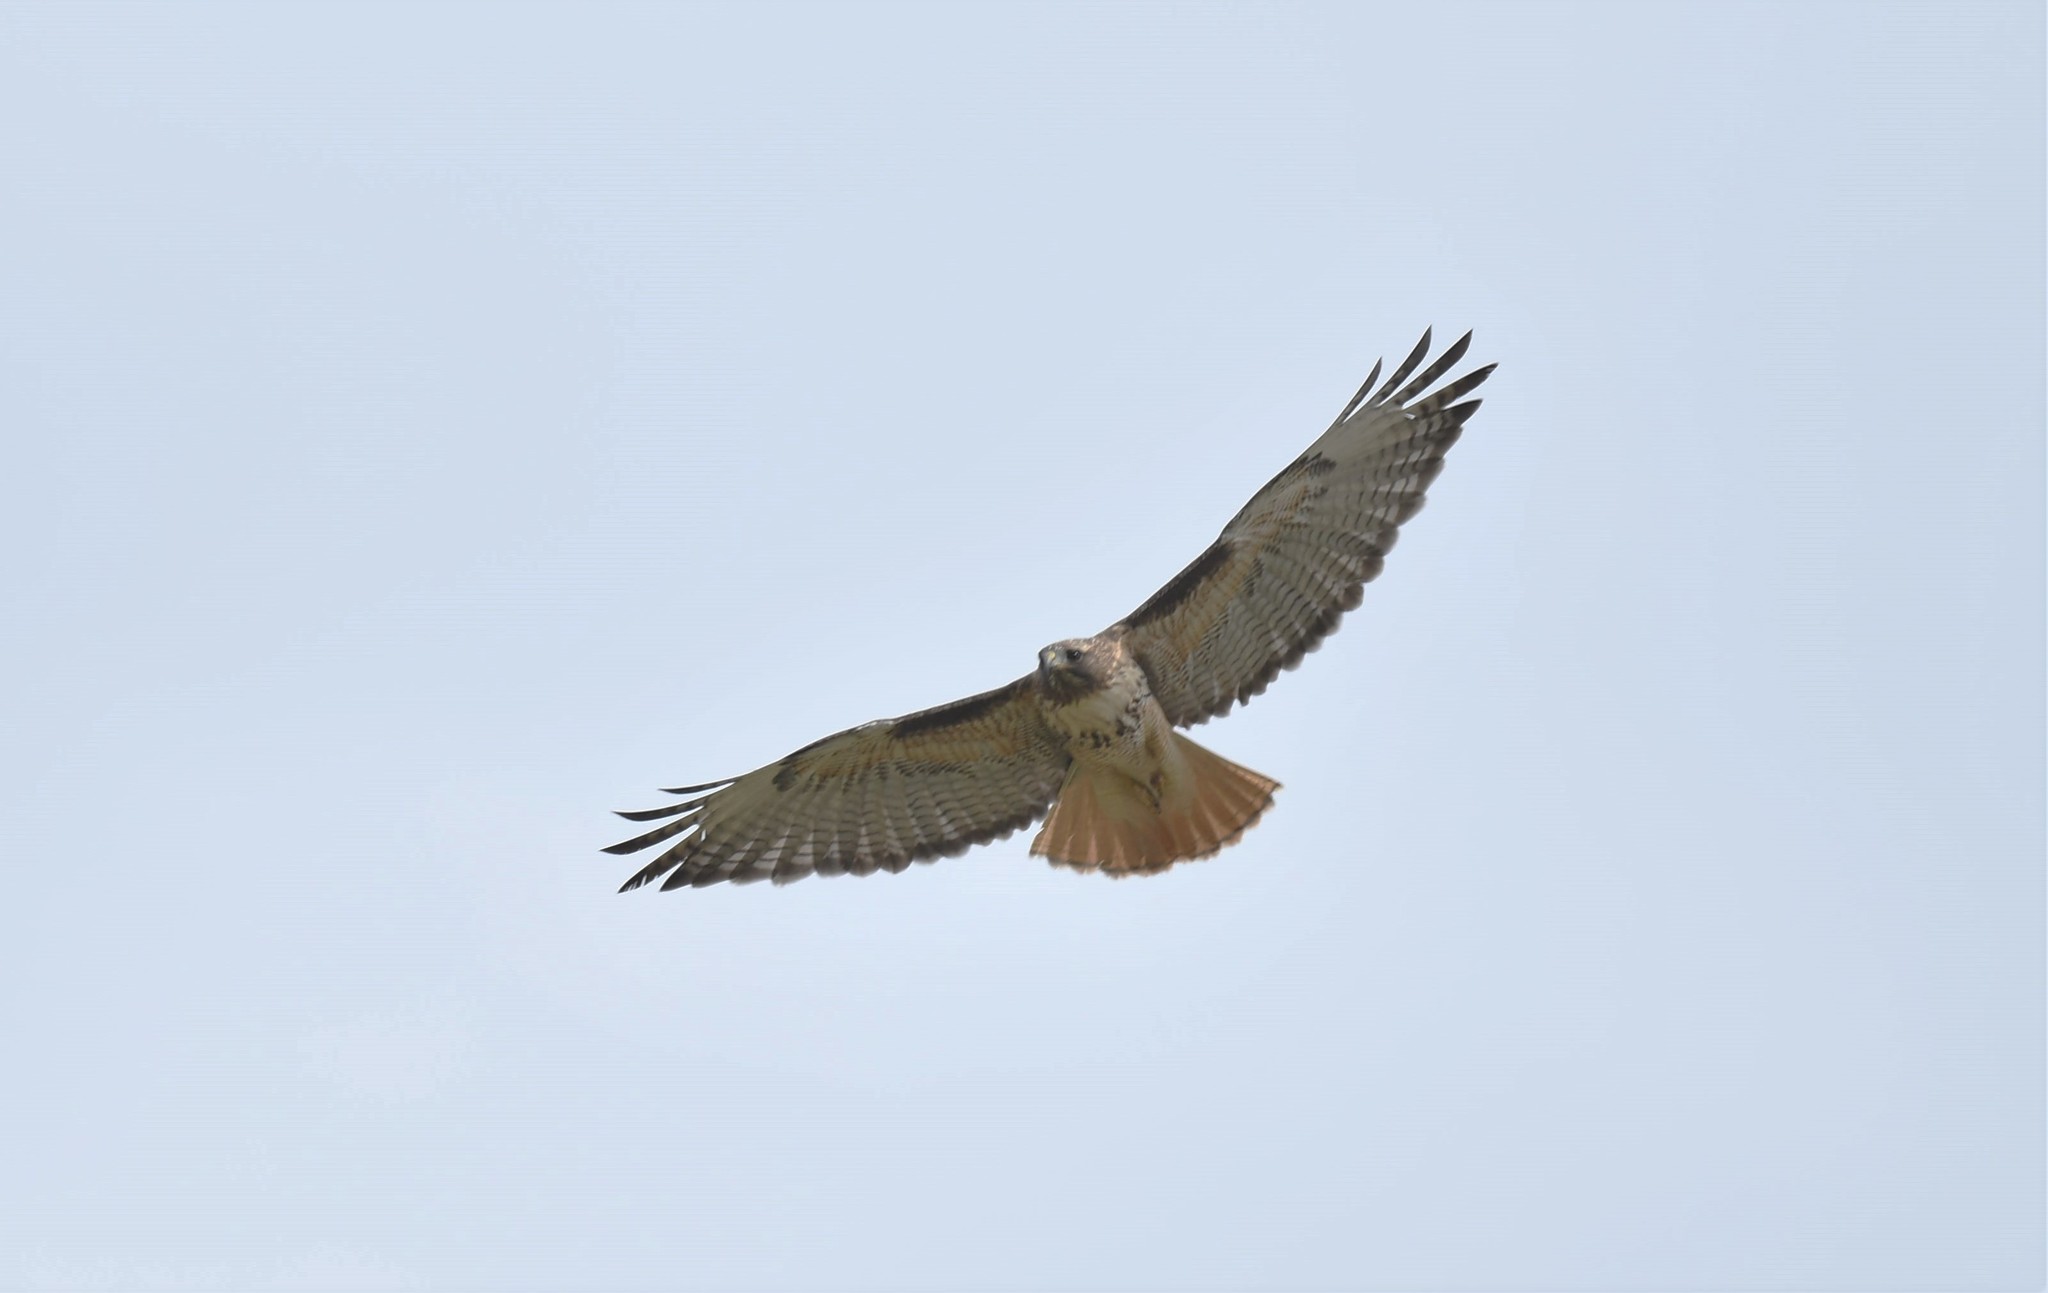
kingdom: Animalia
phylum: Chordata
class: Aves
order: Accipitriformes
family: Accipitridae
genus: Buteo
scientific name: Buteo jamaicensis
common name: Red-tailed hawk
